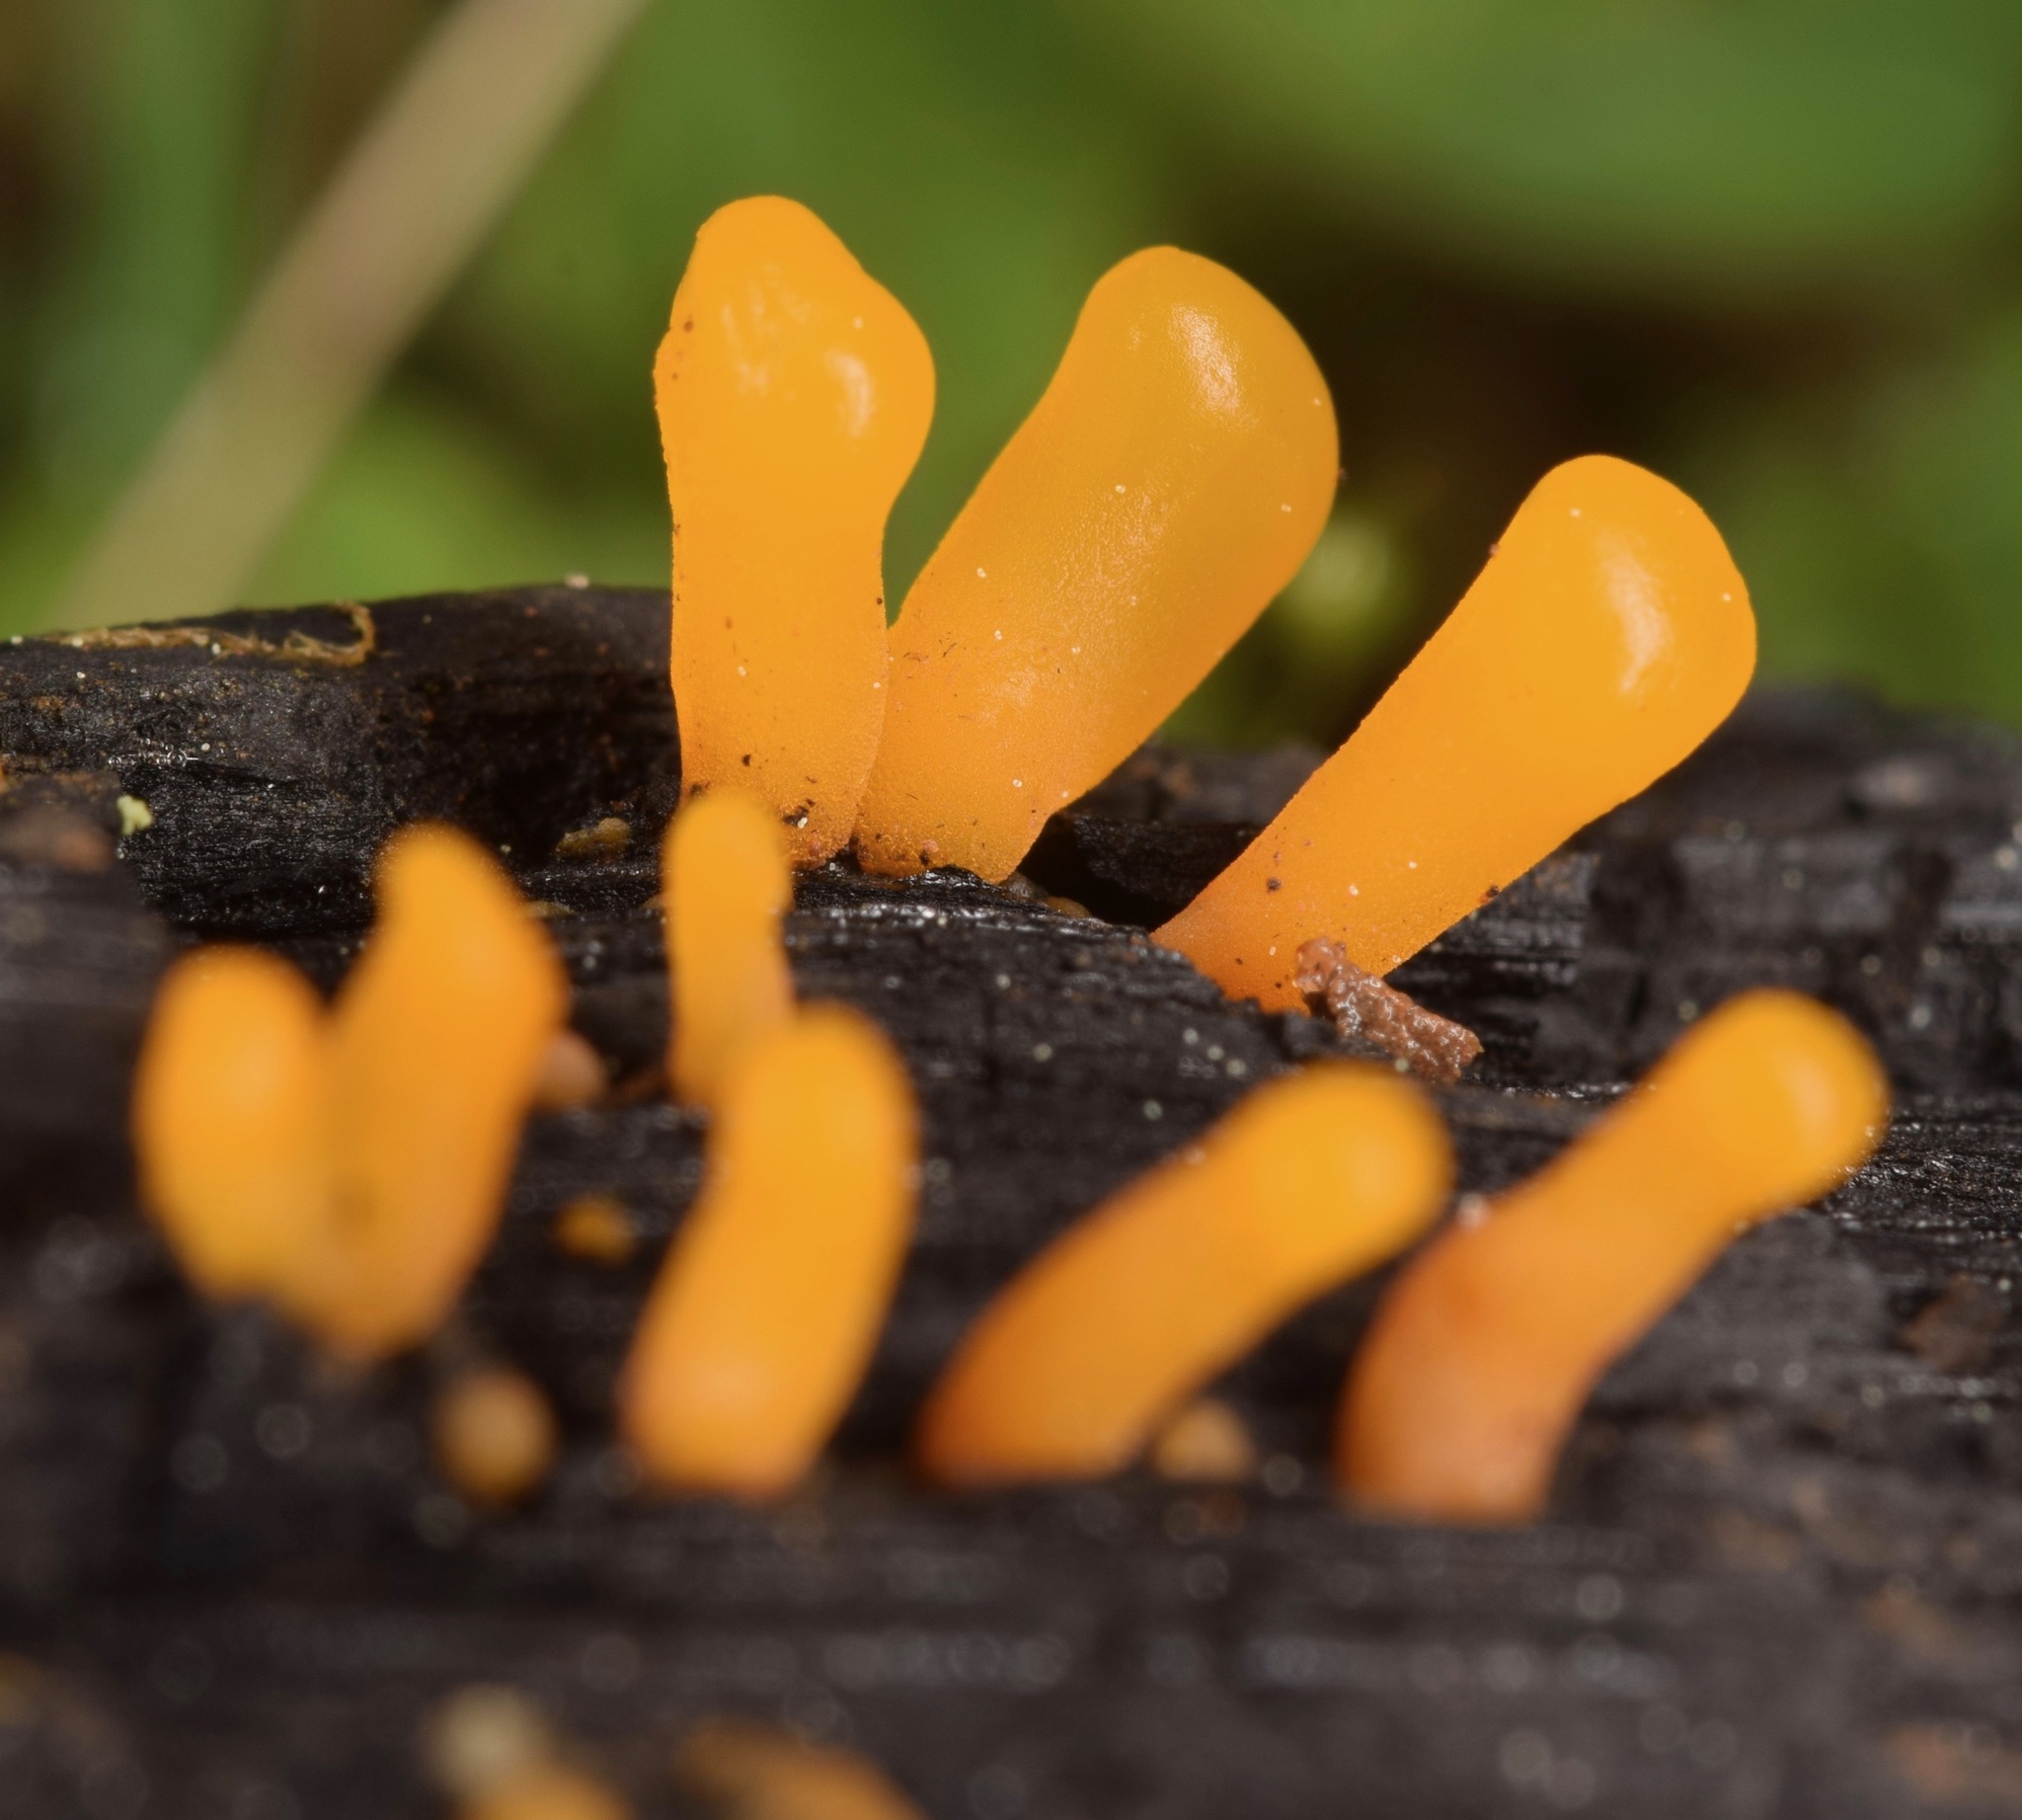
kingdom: Fungi
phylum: Basidiomycota
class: Dacrymycetes
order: Dacrymycetales
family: Dacrymycetaceae
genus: Dacrymyces
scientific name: Dacrymyces spathularius
